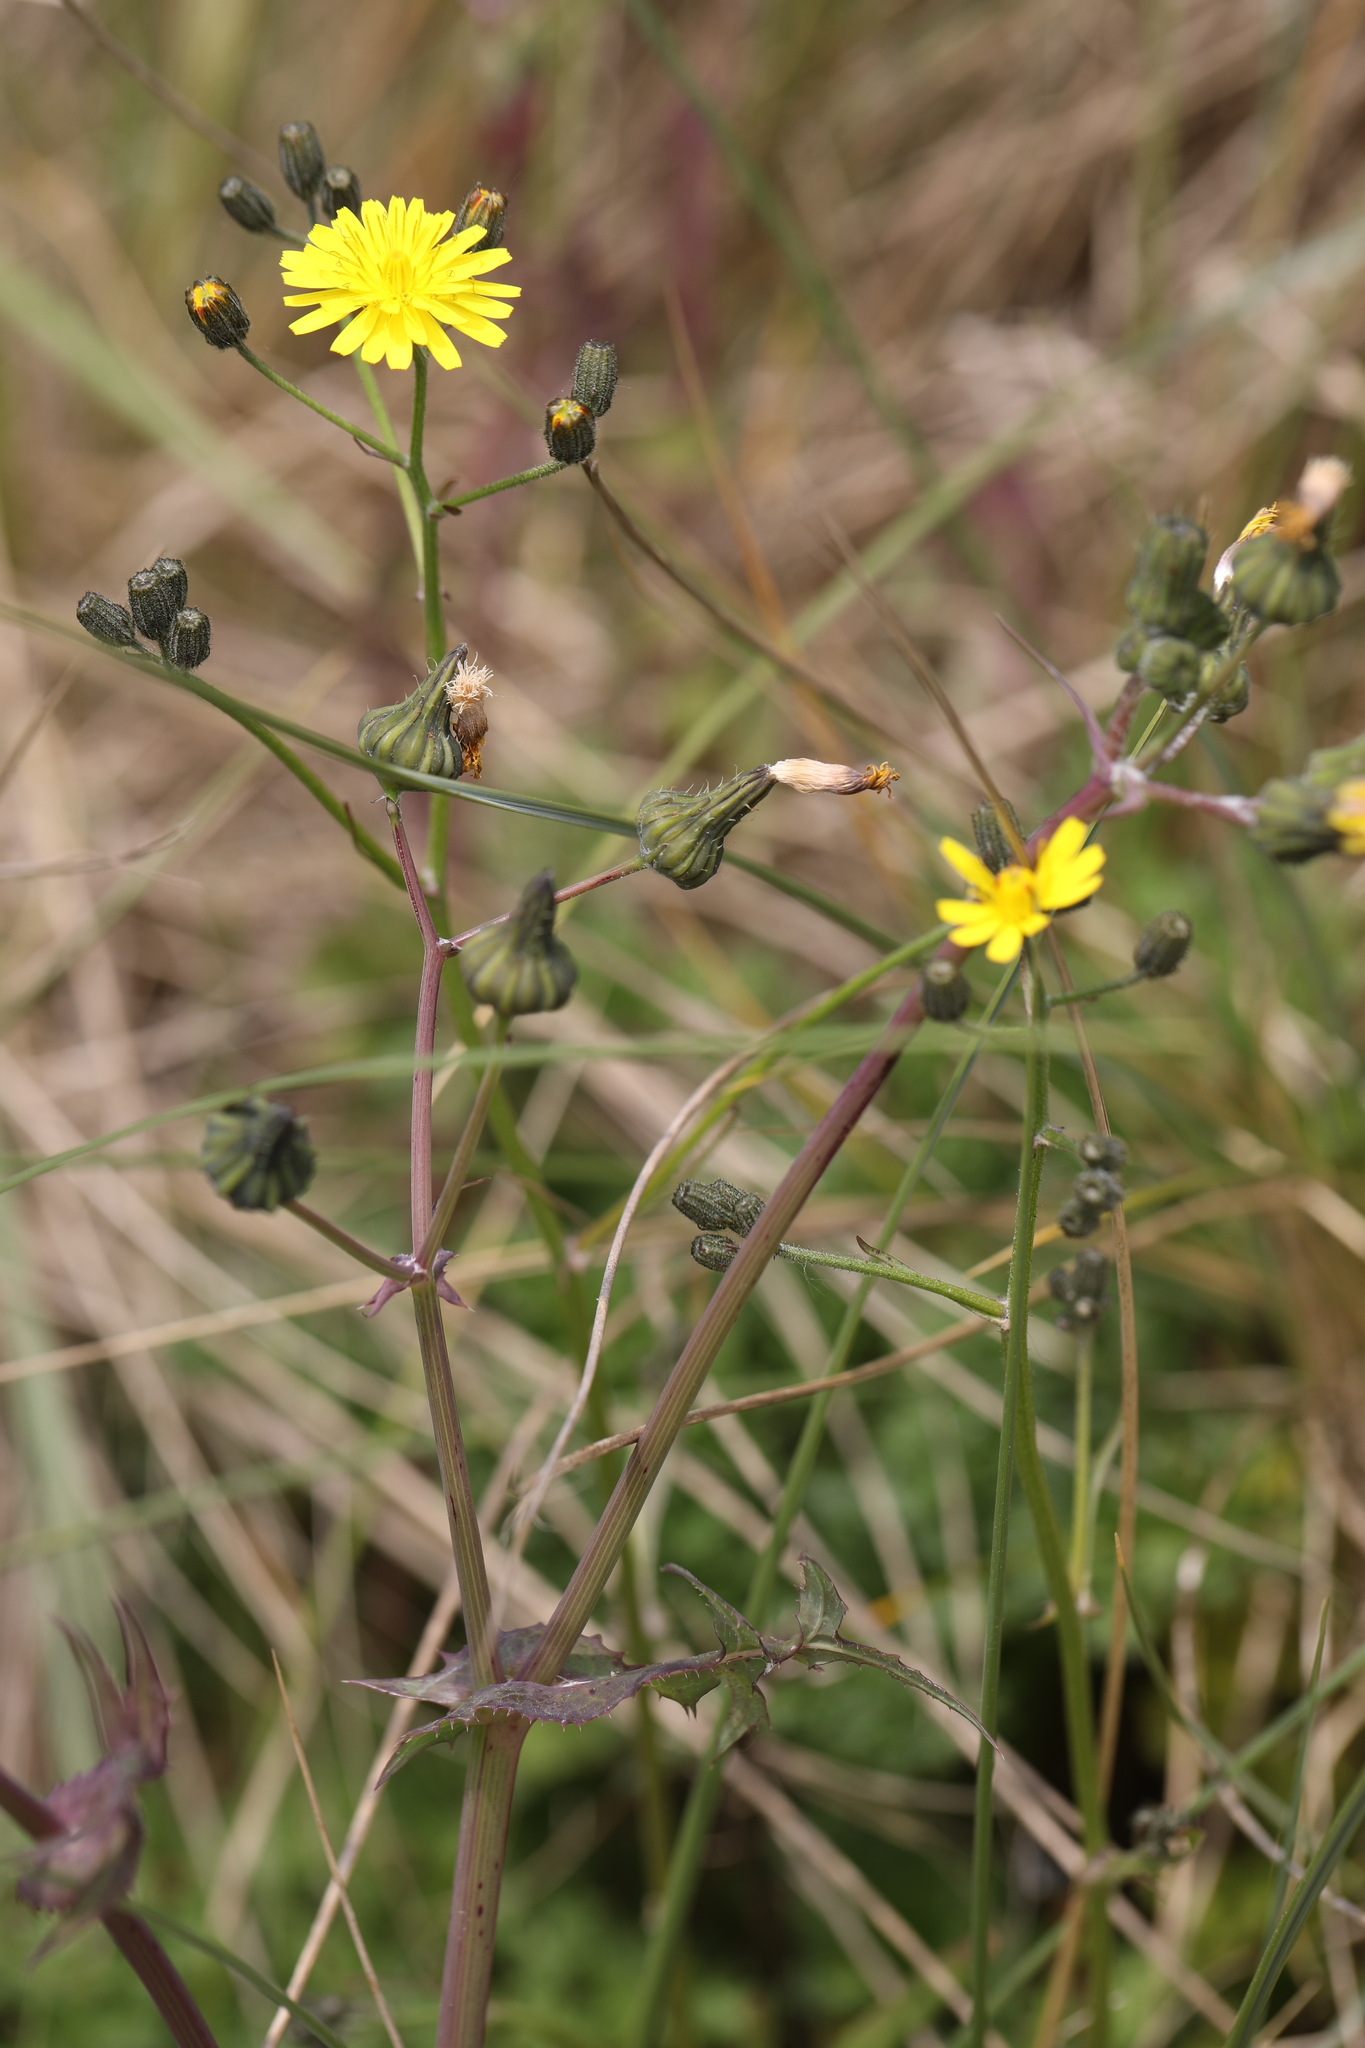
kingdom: Plantae
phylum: Tracheophyta
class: Magnoliopsida
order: Asterales
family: Asteraceae
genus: Sonchus
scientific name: Sonchus oleraceus
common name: Common sowthistle
